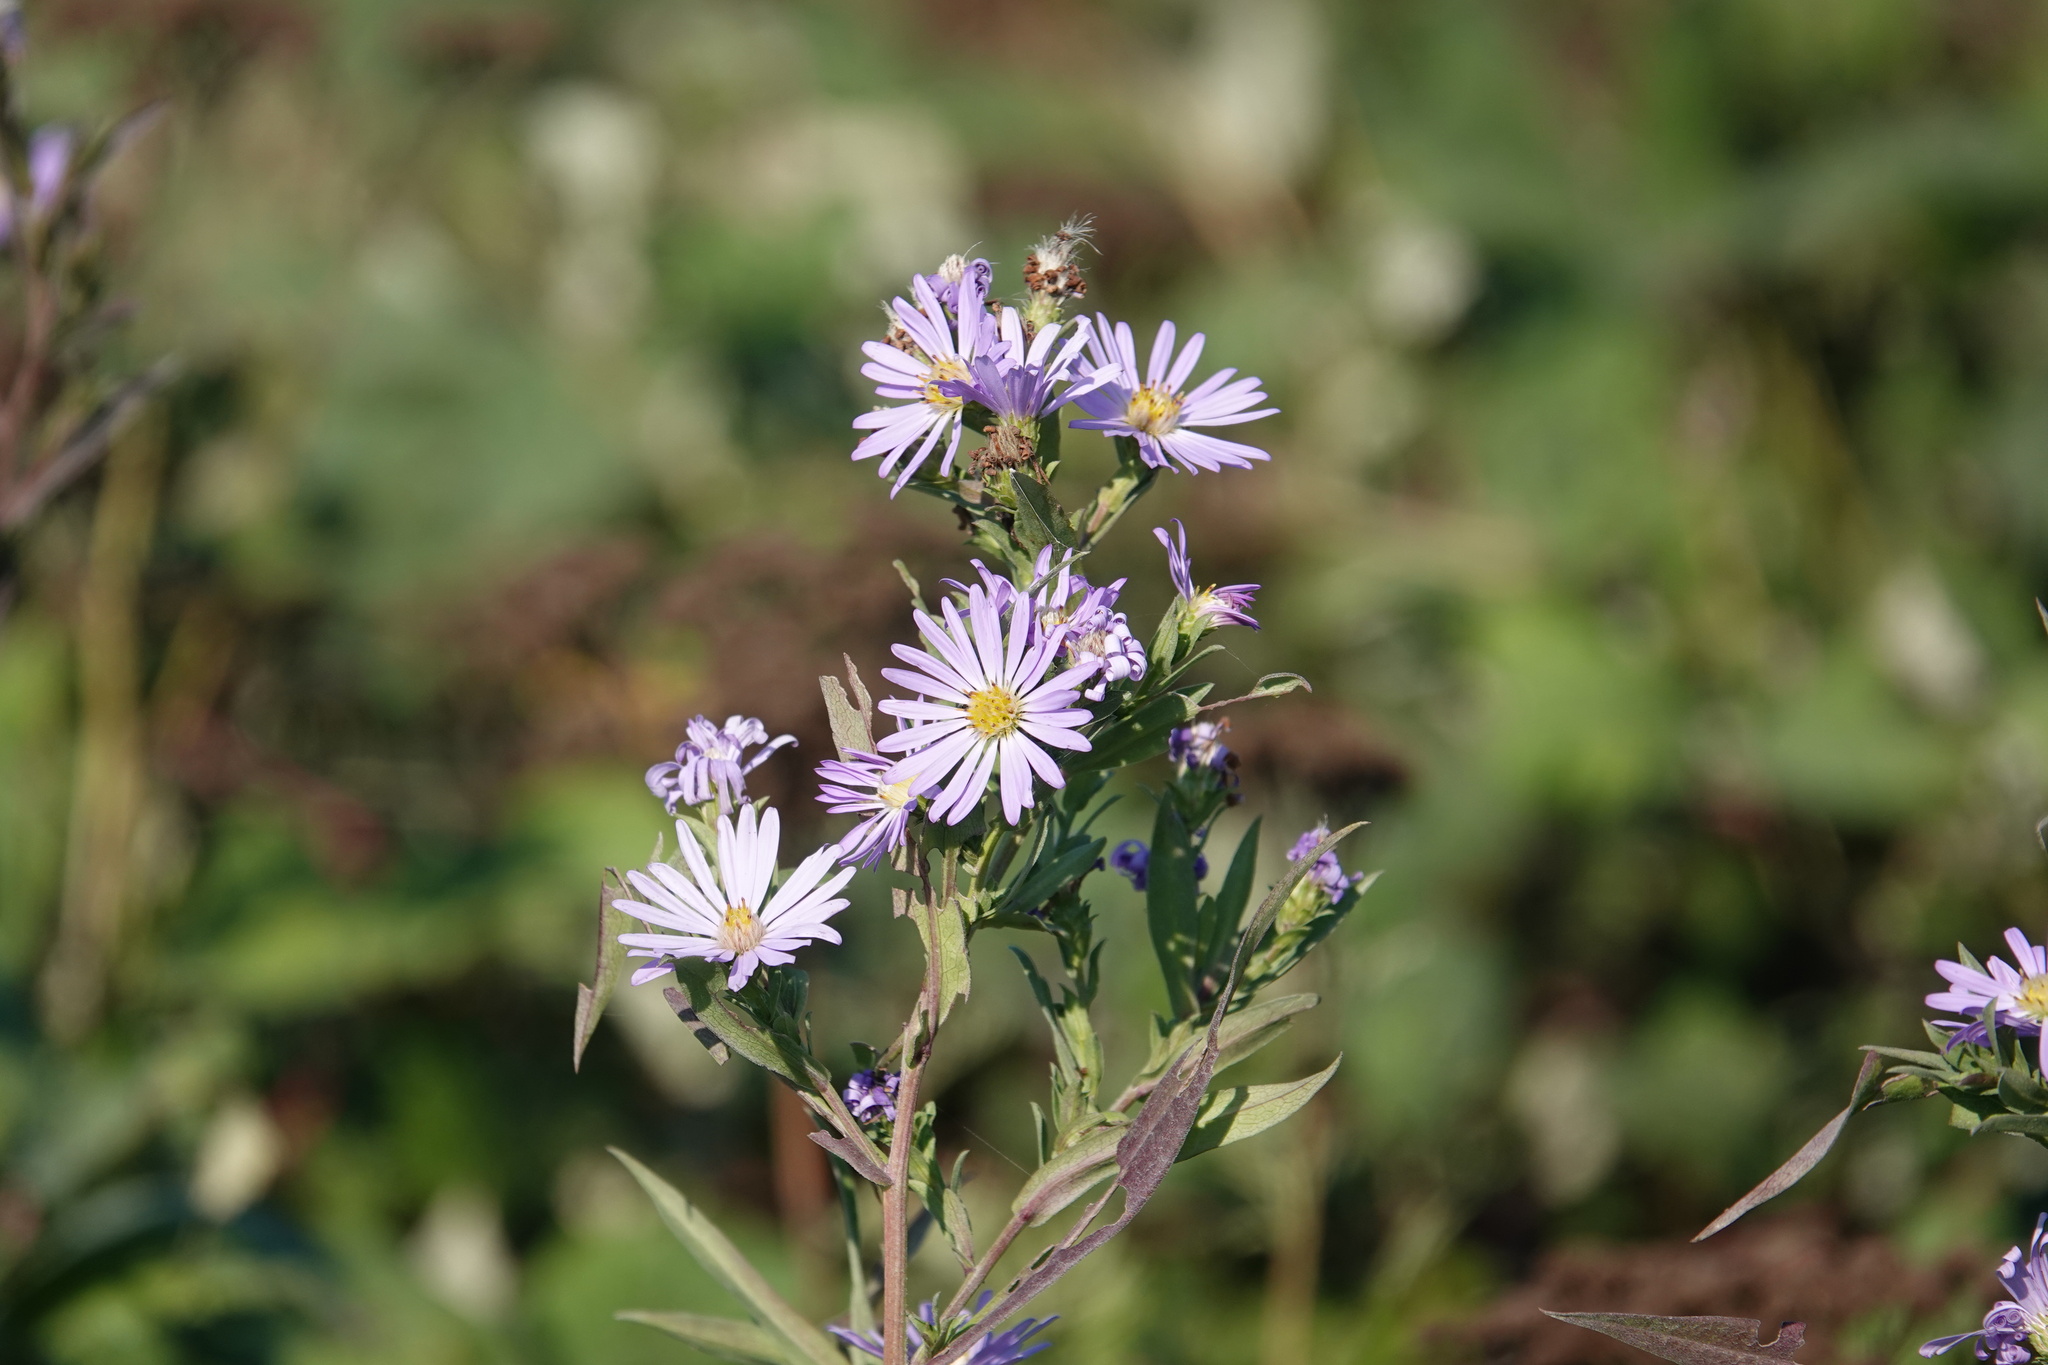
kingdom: Plantae
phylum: Tracheophyta
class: Magnoliopsida
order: Asterales
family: Asteraceae
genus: Symphyotrichum
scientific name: Symphyotrichum chilense
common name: Pacific aster
